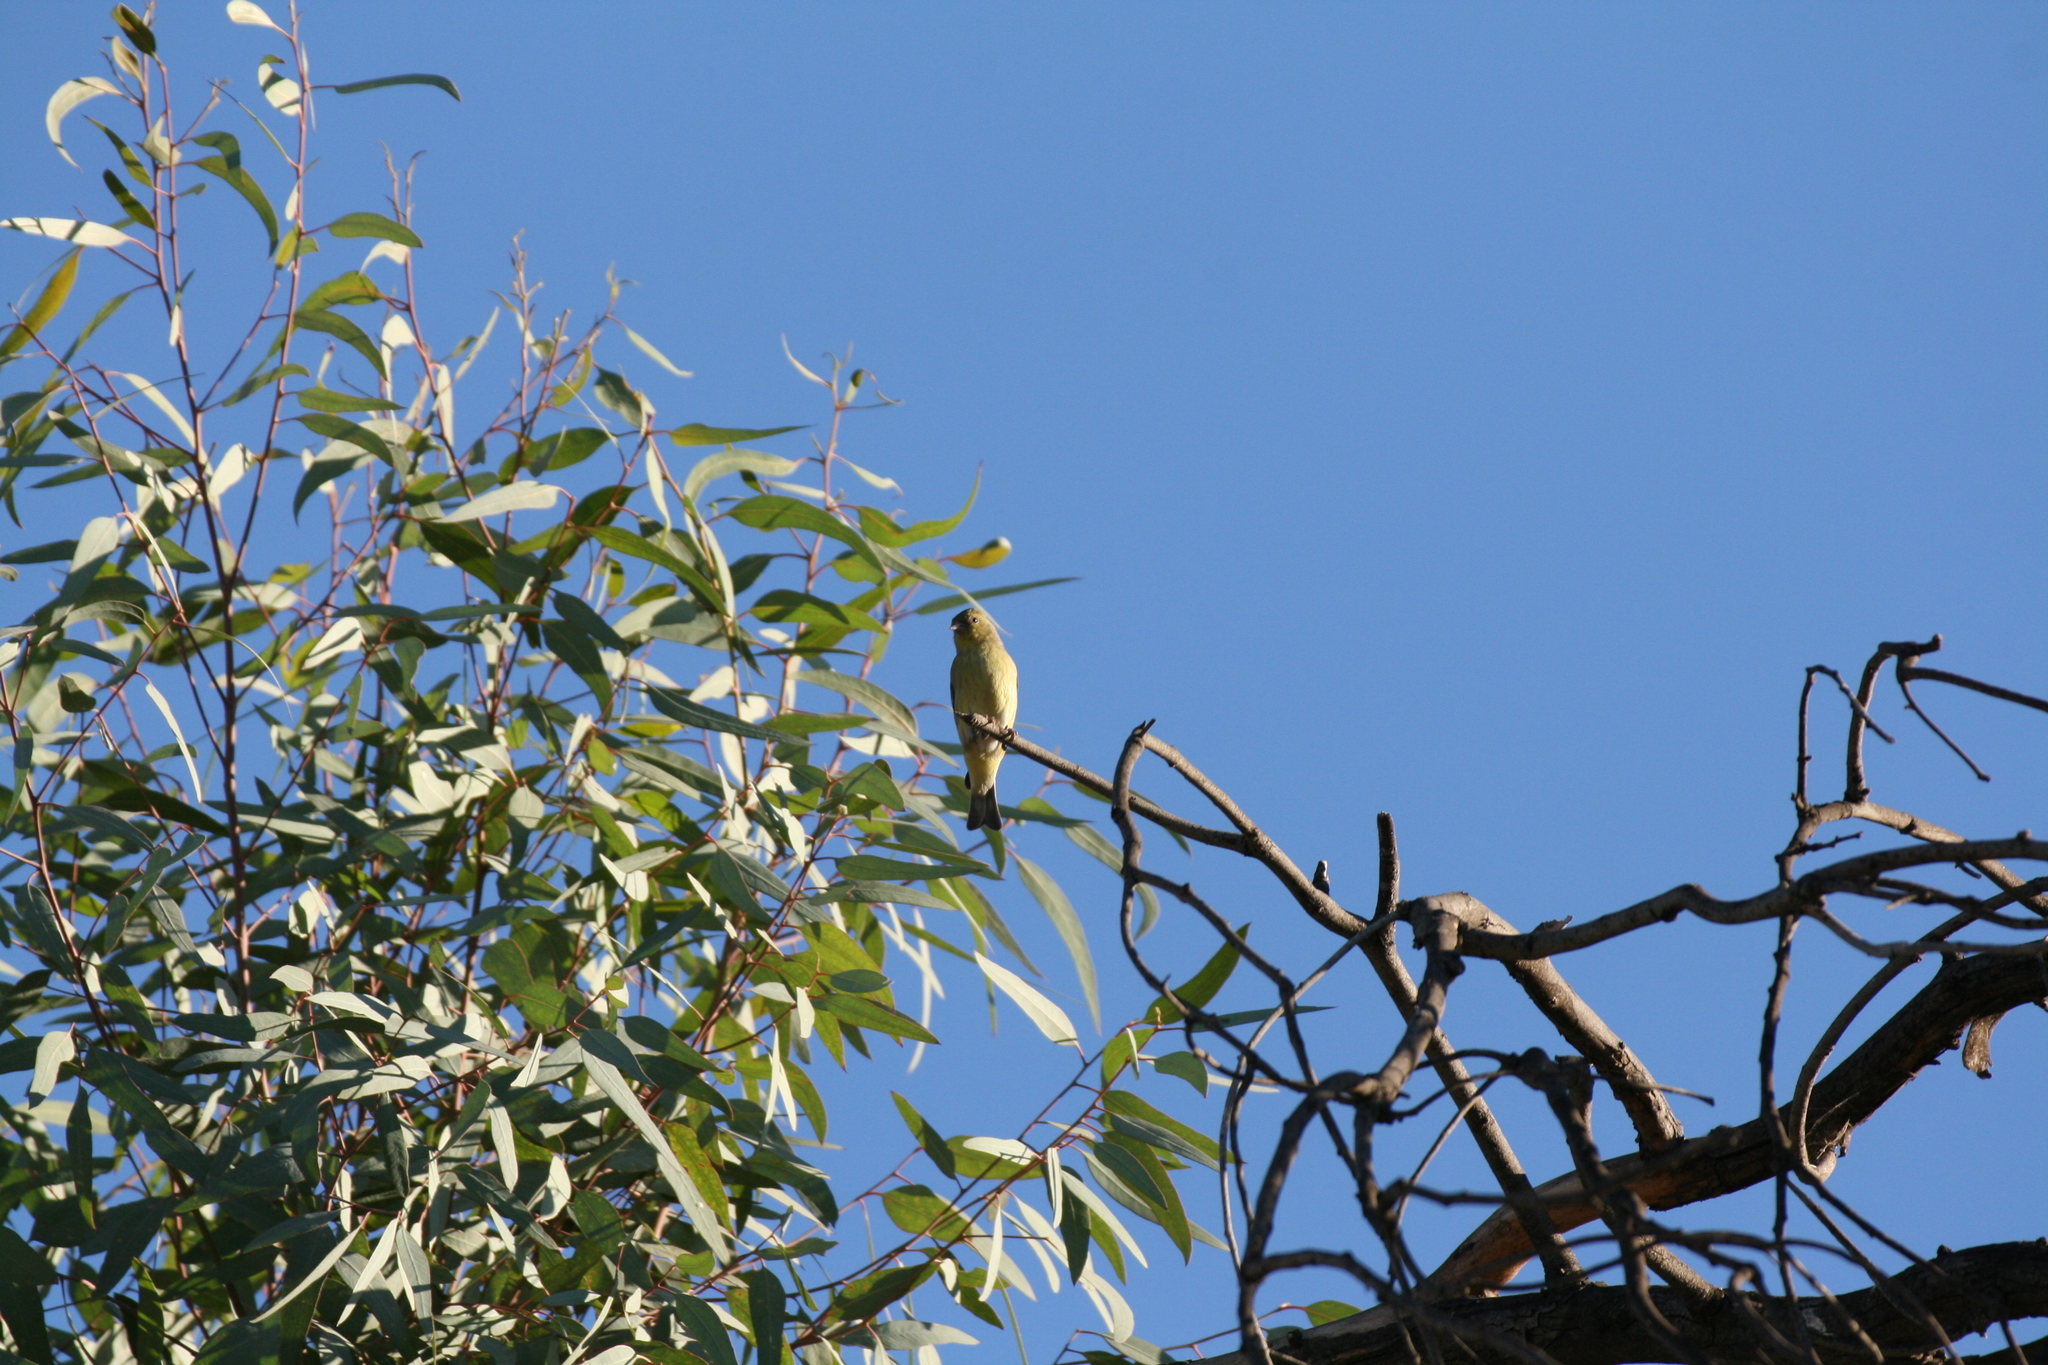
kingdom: Animalia
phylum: Chordata
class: Aves
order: Passeriformes
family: Fringillidae
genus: Spinus
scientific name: Spinus psaltria
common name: Lesser goldfinch
